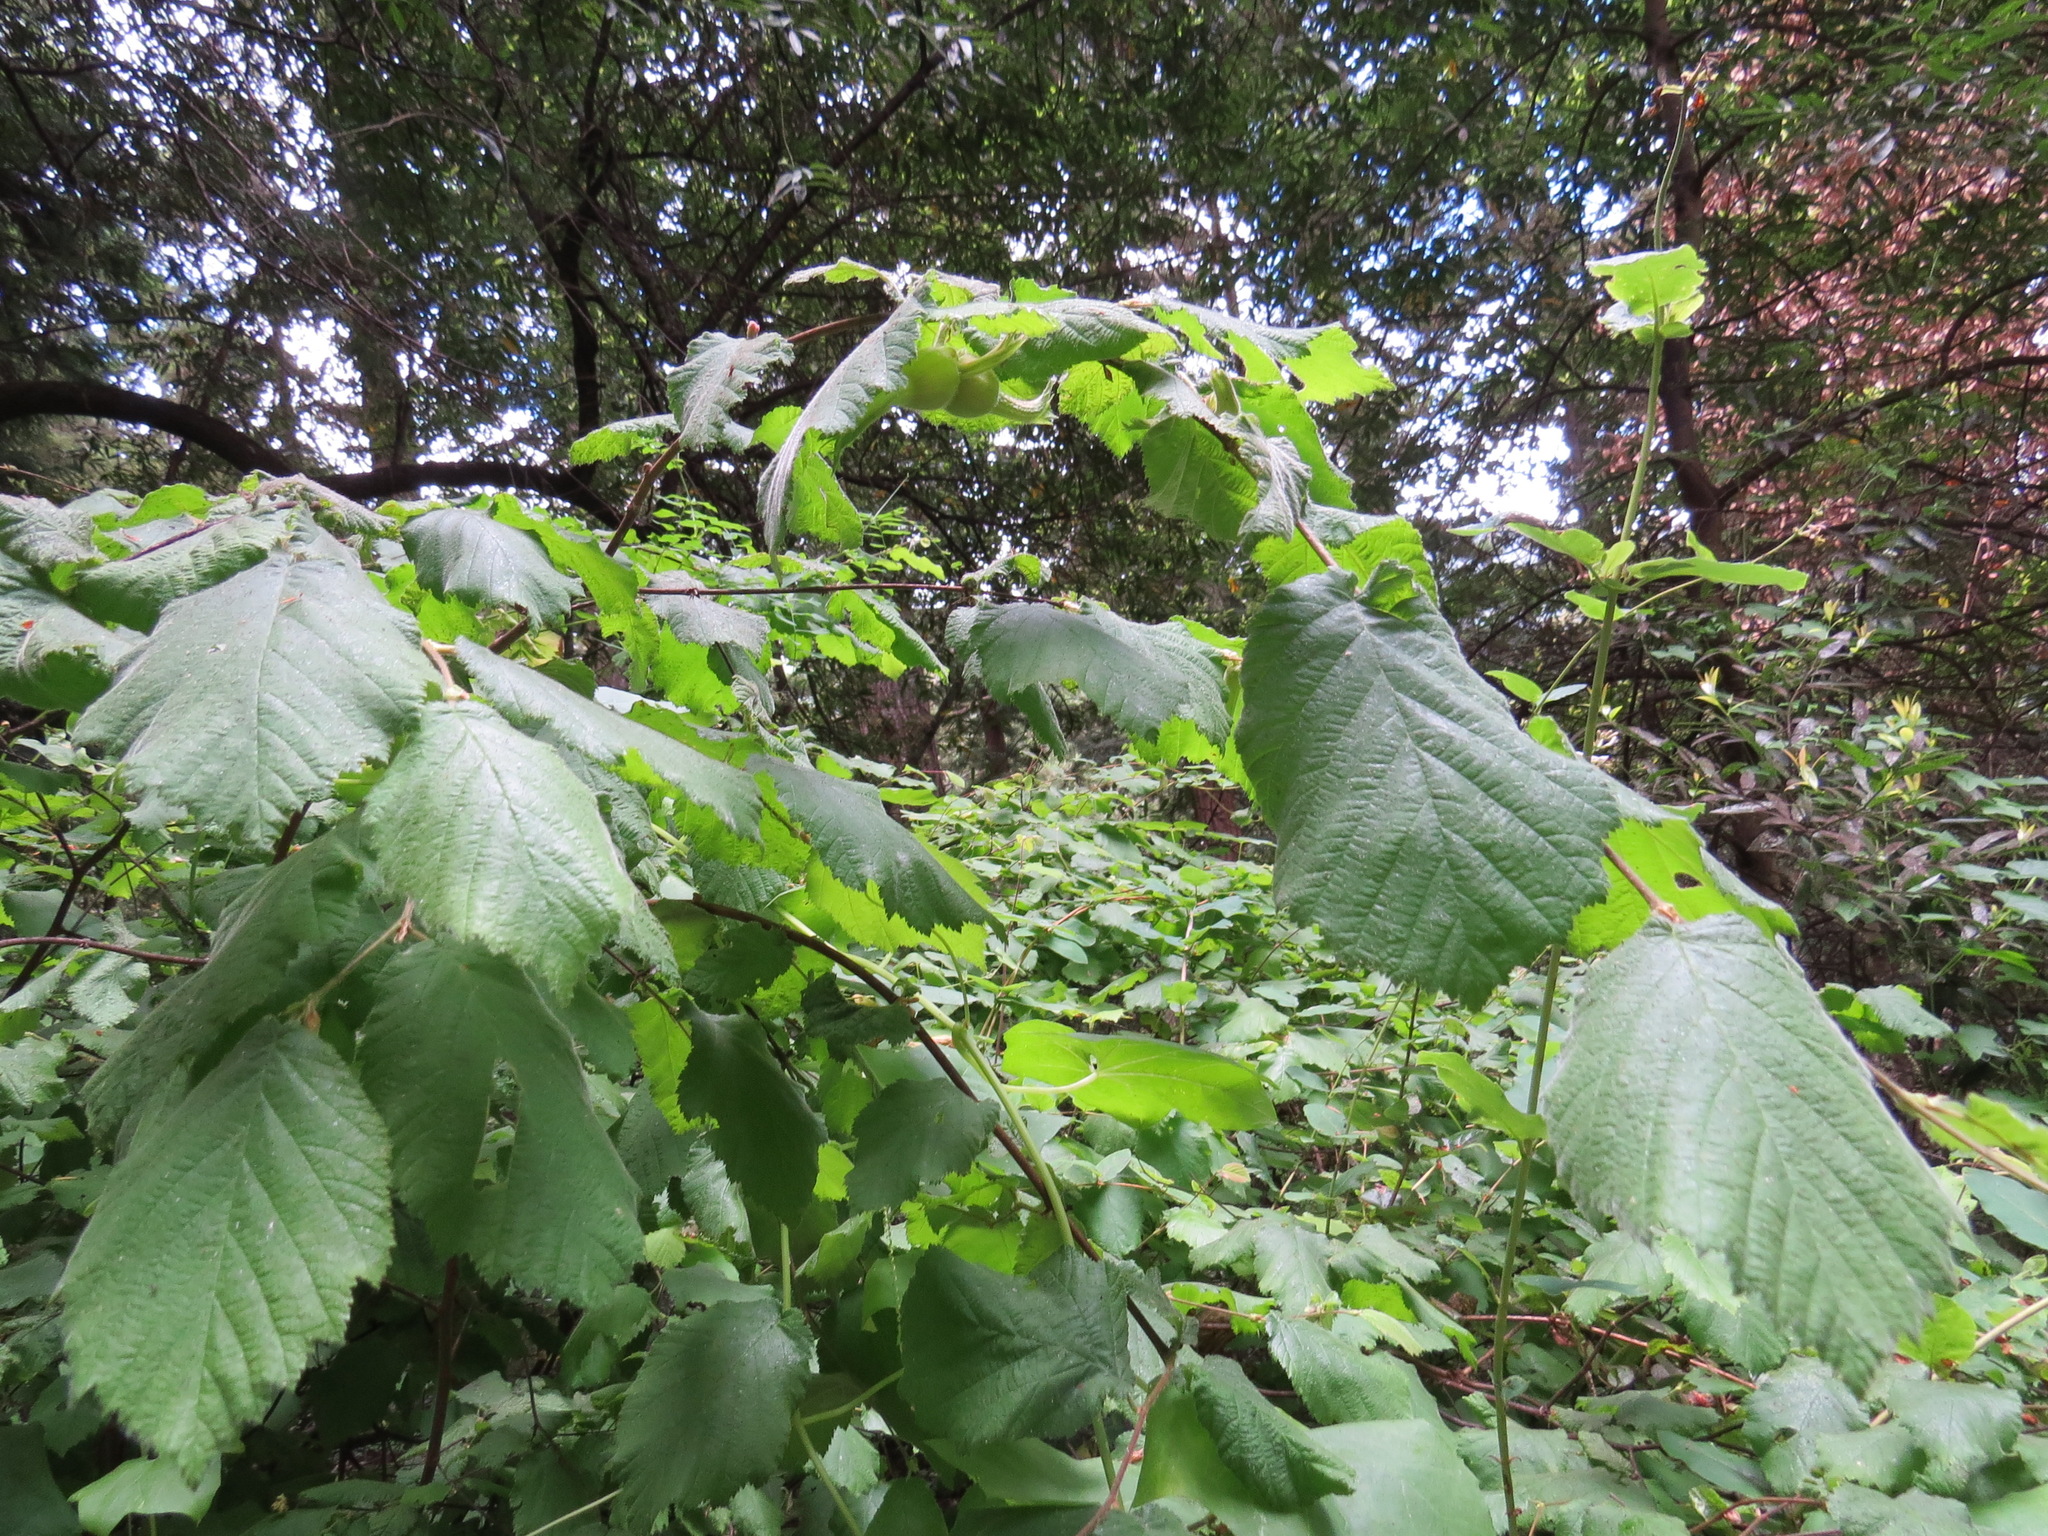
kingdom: Plantae
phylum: Tracheophyta
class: Magnoliopsida
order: Fagales
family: Betulaceae
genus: Corylus
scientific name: Corylus cornuta
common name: Beaked hazel
